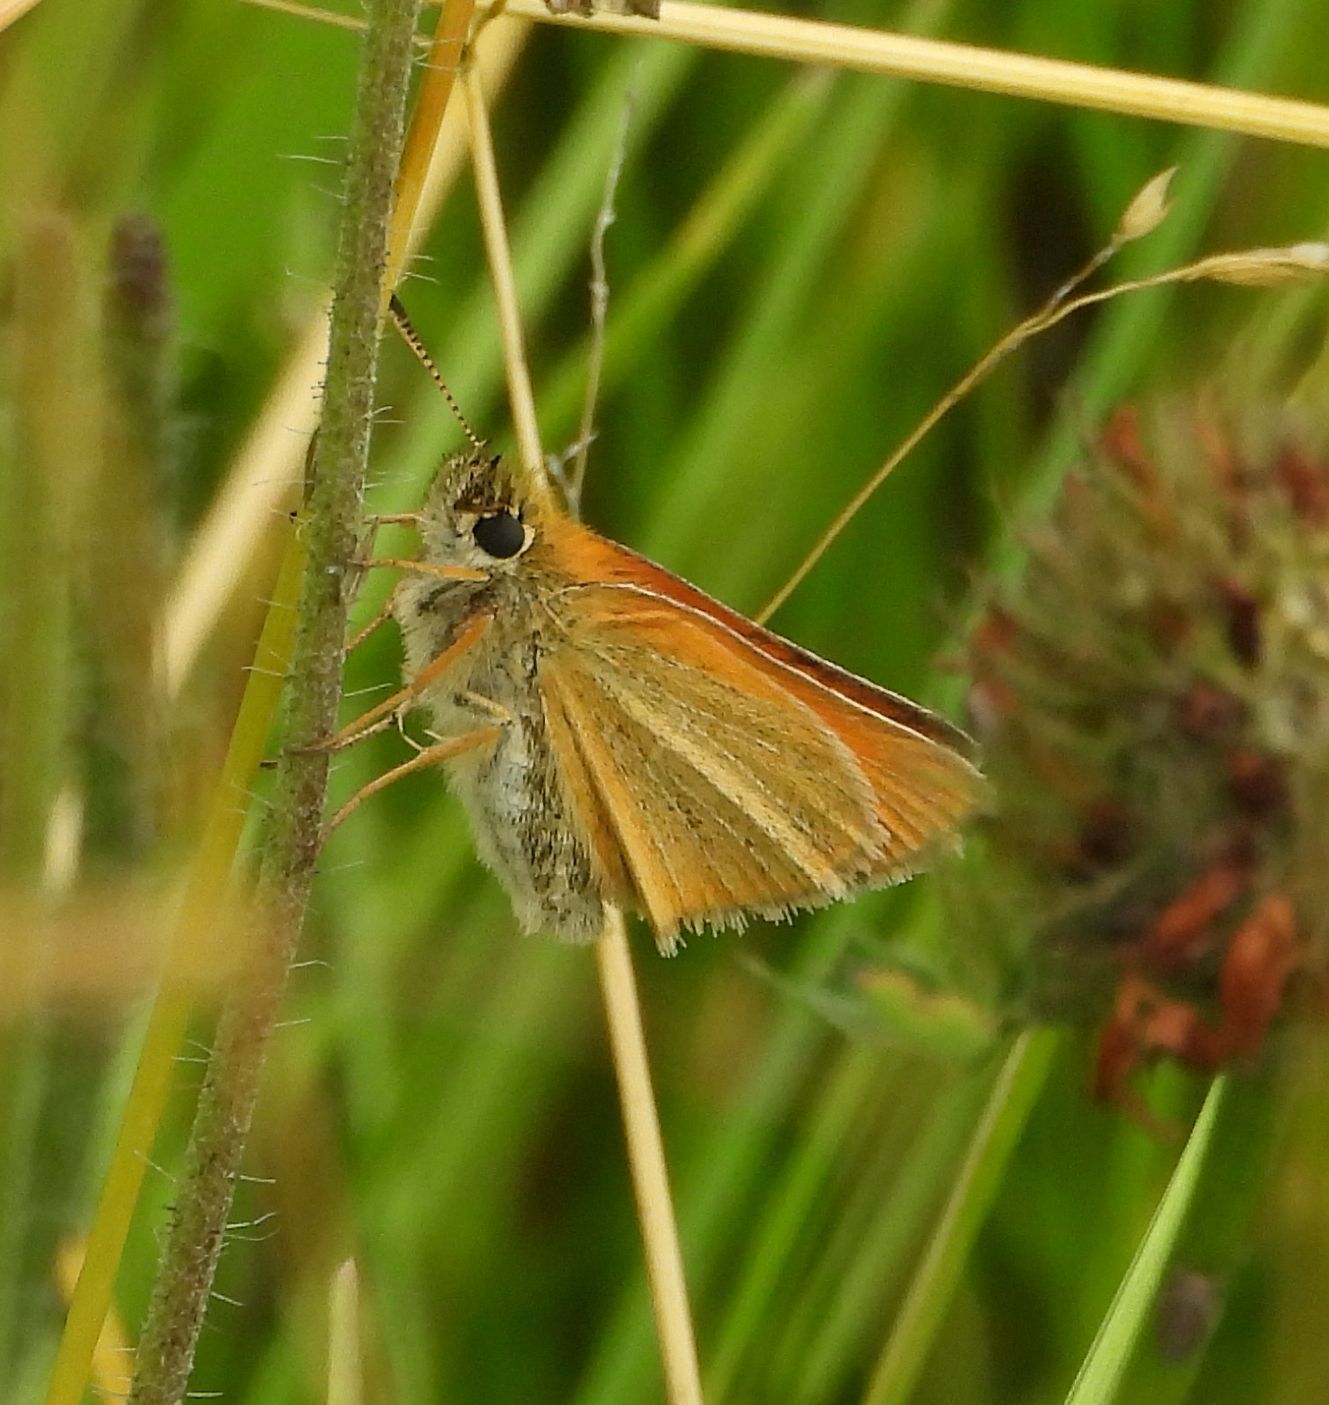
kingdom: Animalia
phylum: Arthropoda
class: Insecta
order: Lepidoptera
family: Hesperiidae
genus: Thymelicus
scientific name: Thymelicus lineola
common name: Essex skipper
